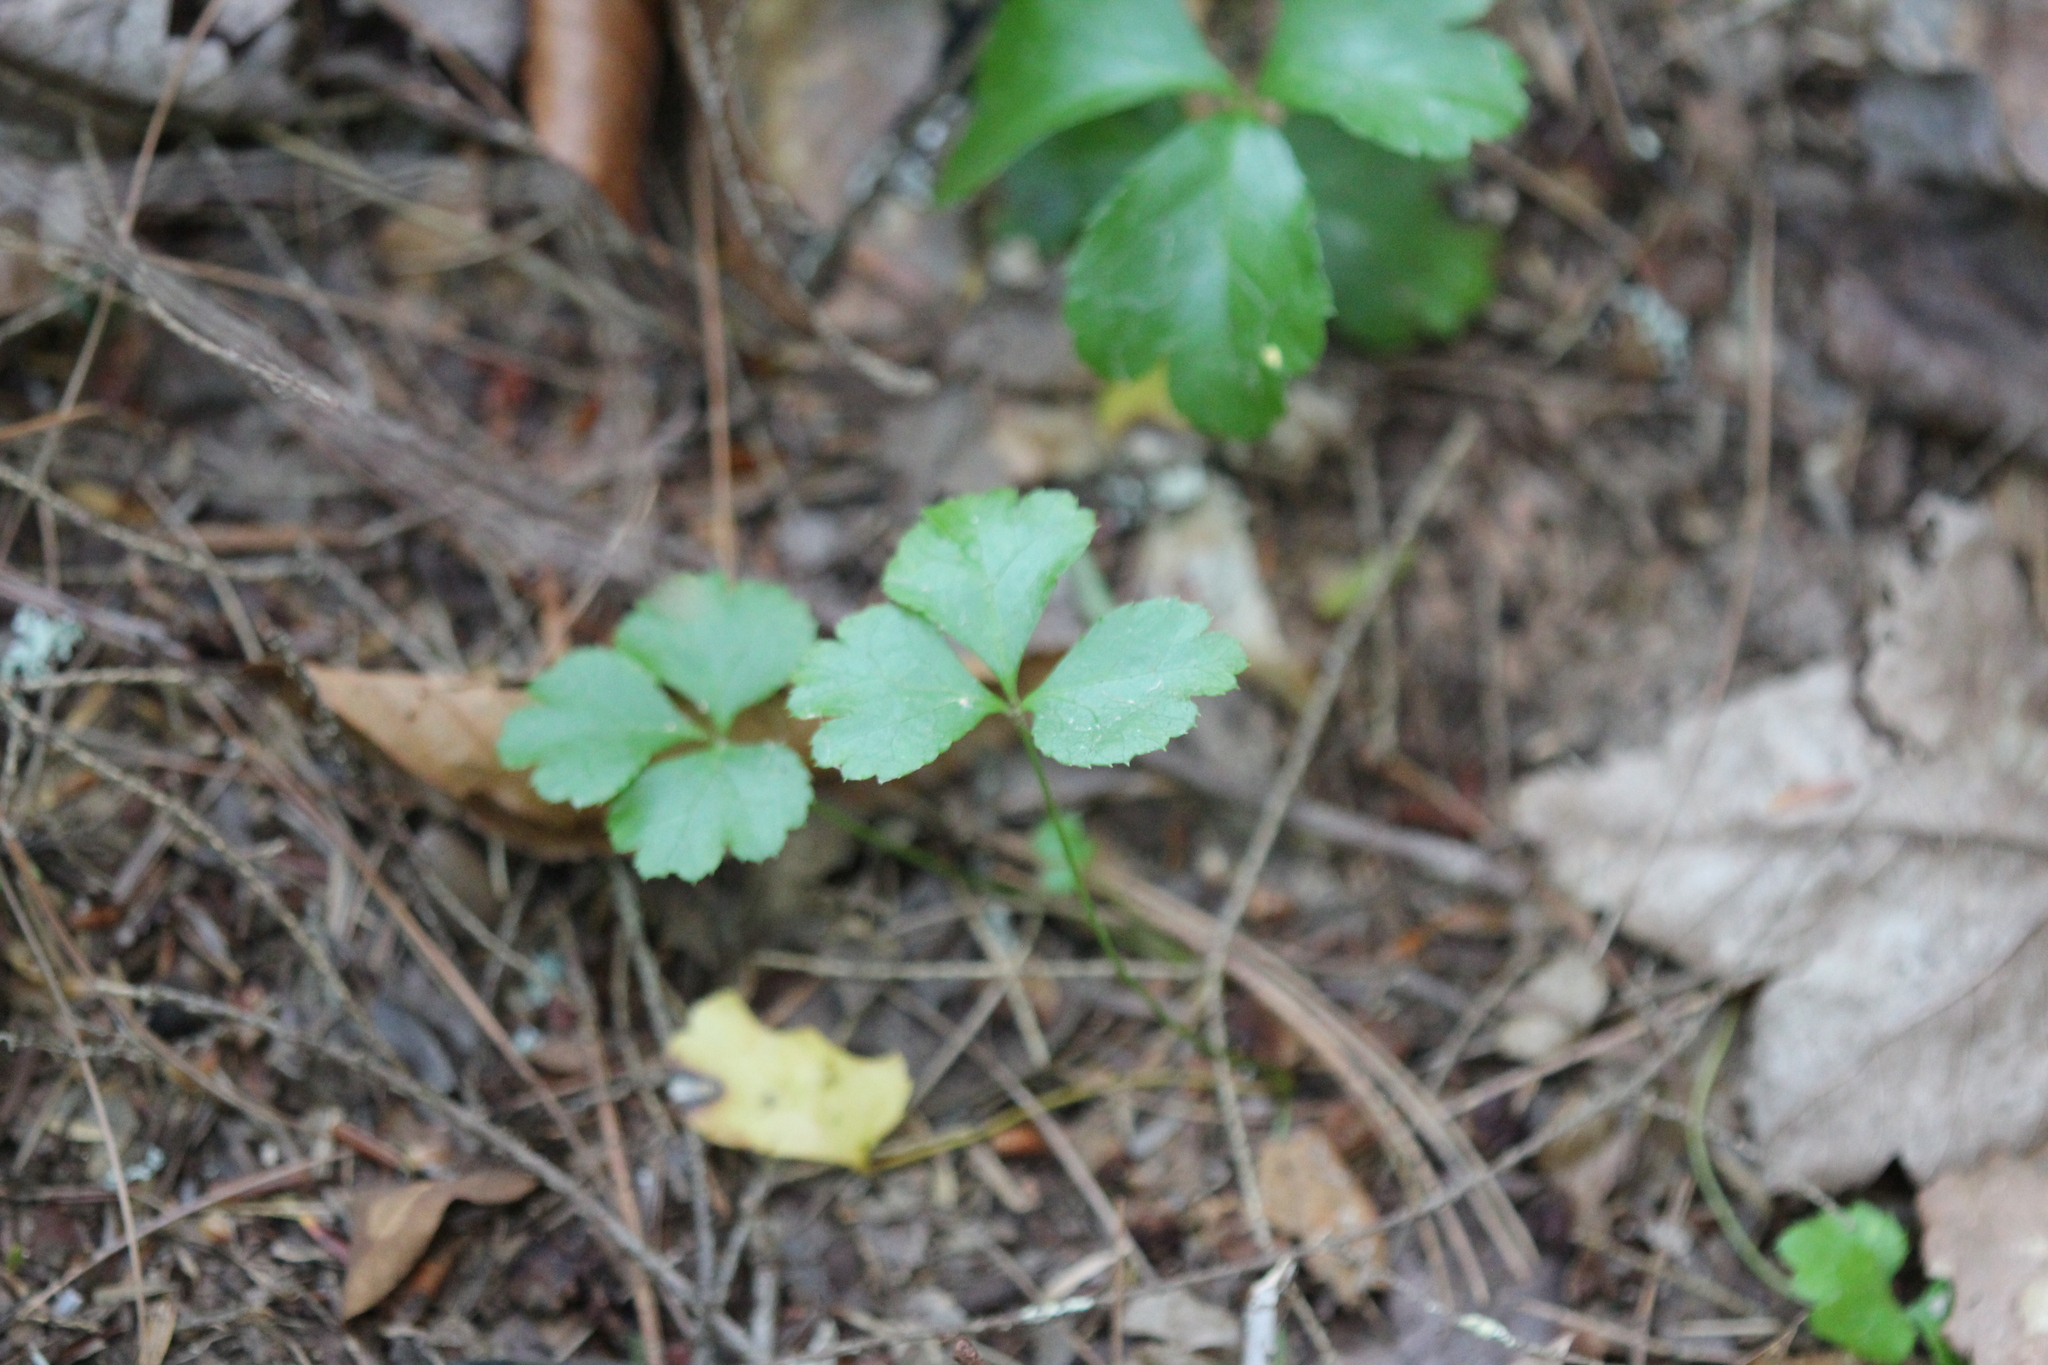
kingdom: Plantae
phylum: Tracheophyta
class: Magnoliopsida
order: Ranunculales
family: Ranunculaceae
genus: Coptis
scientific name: Coptis trifolia
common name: Canker-root
